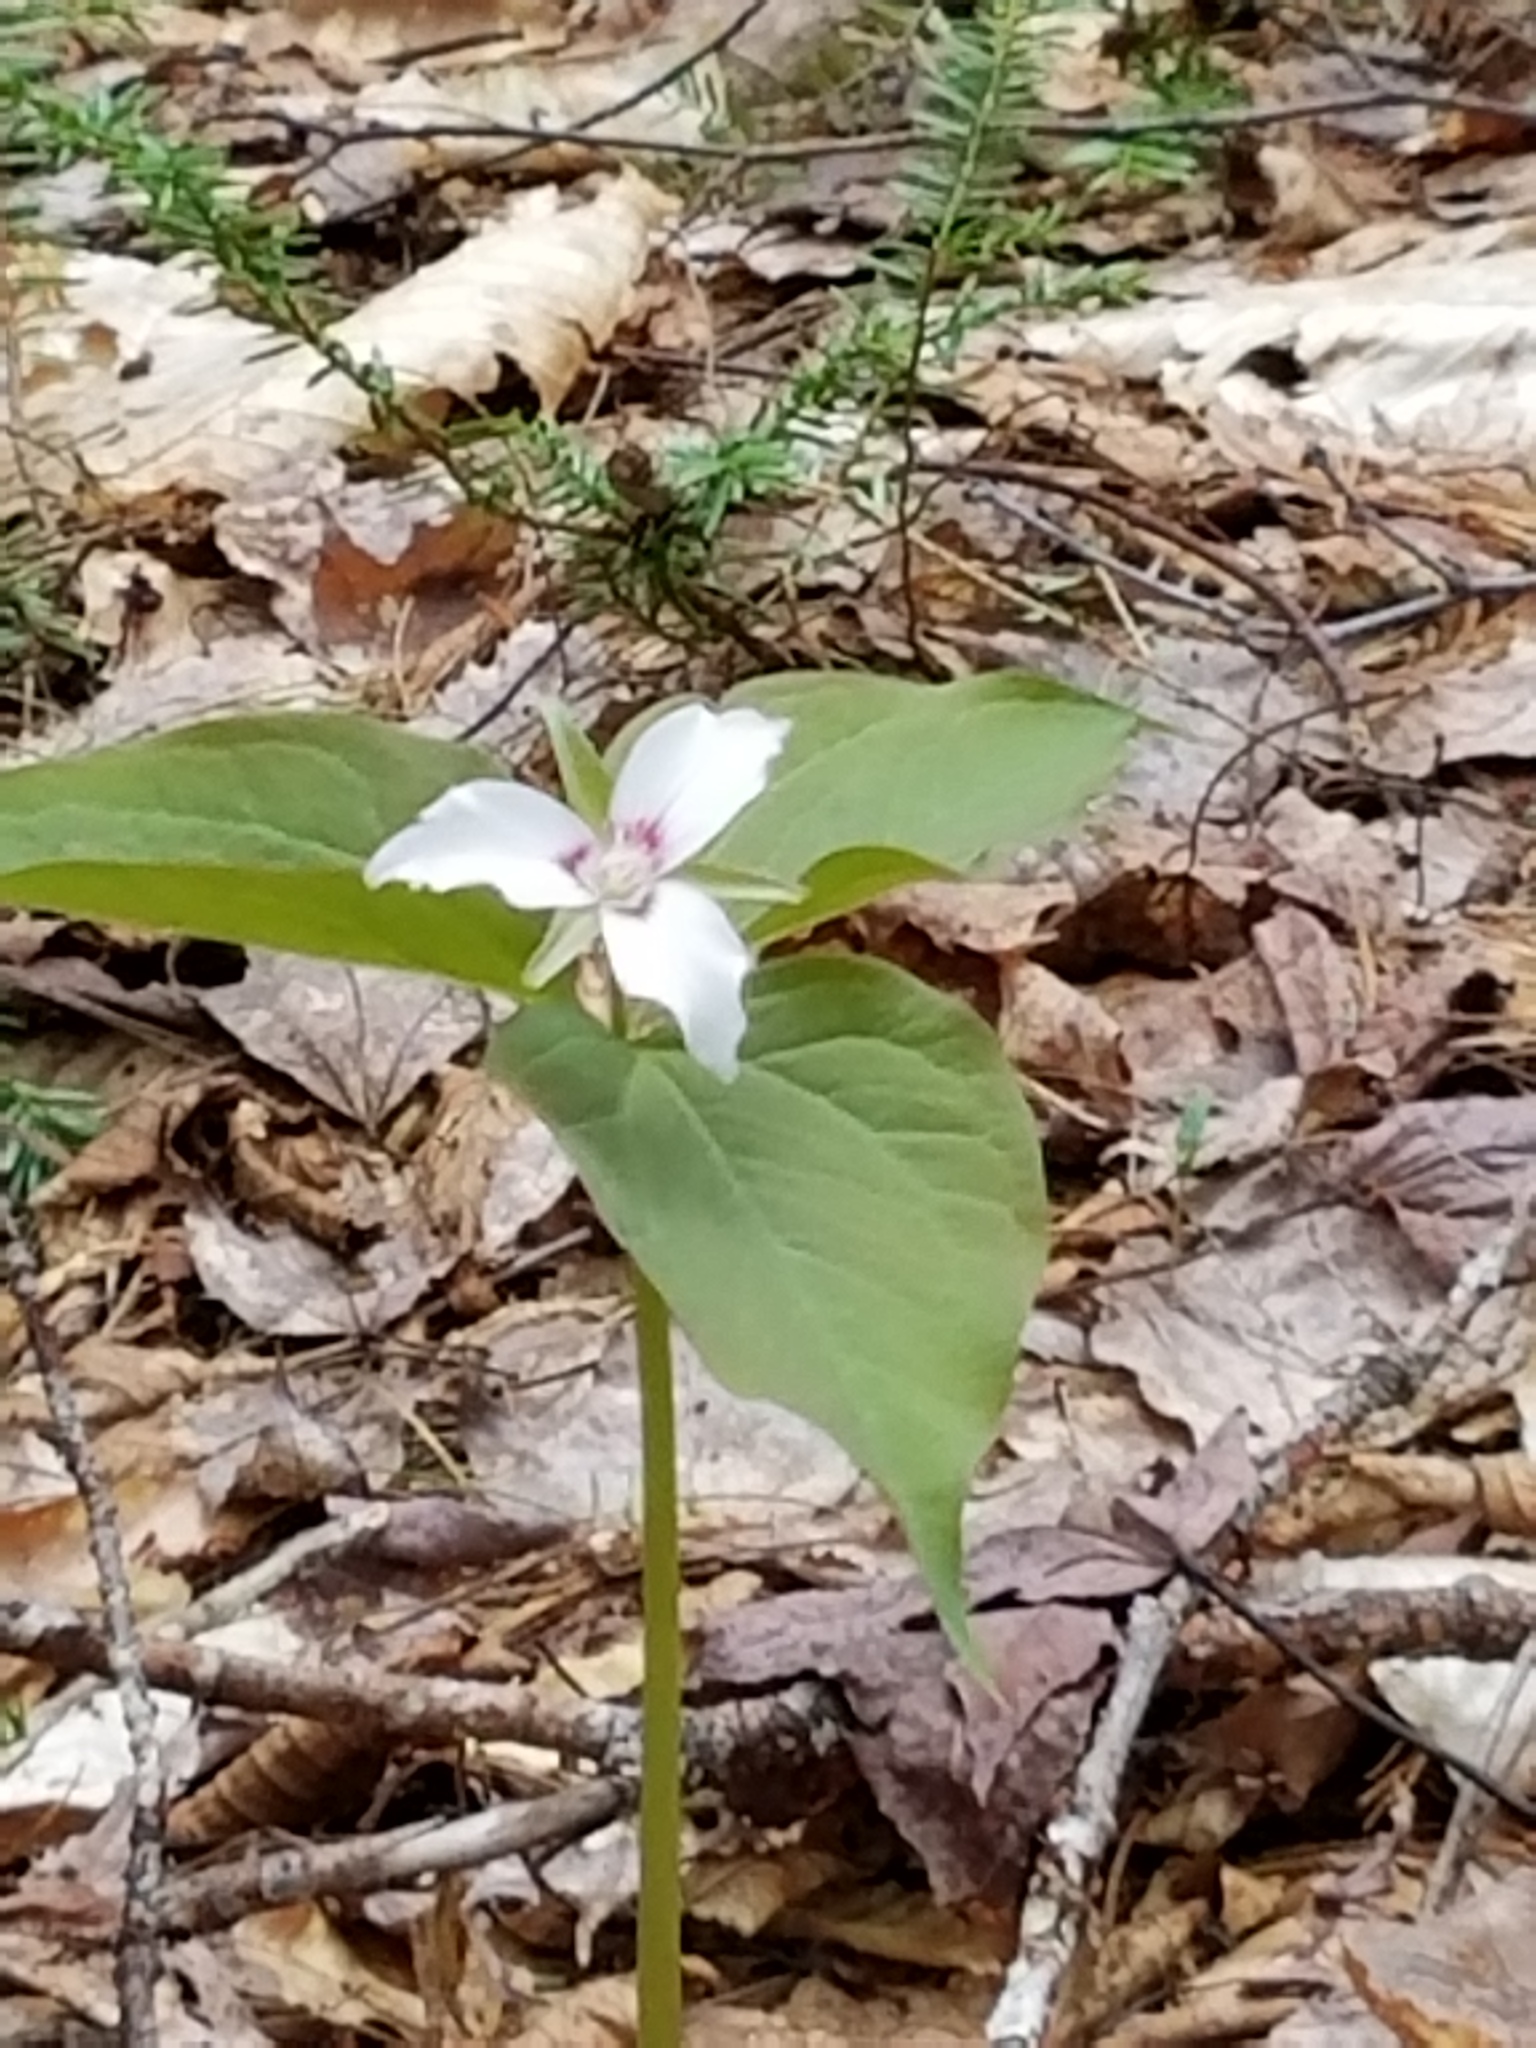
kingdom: Plantae
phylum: Tracheophyta
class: Liliopsida
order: Liliales
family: Melanthiaceae
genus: Trillium
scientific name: Trillium undulatum
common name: Paint trillium
